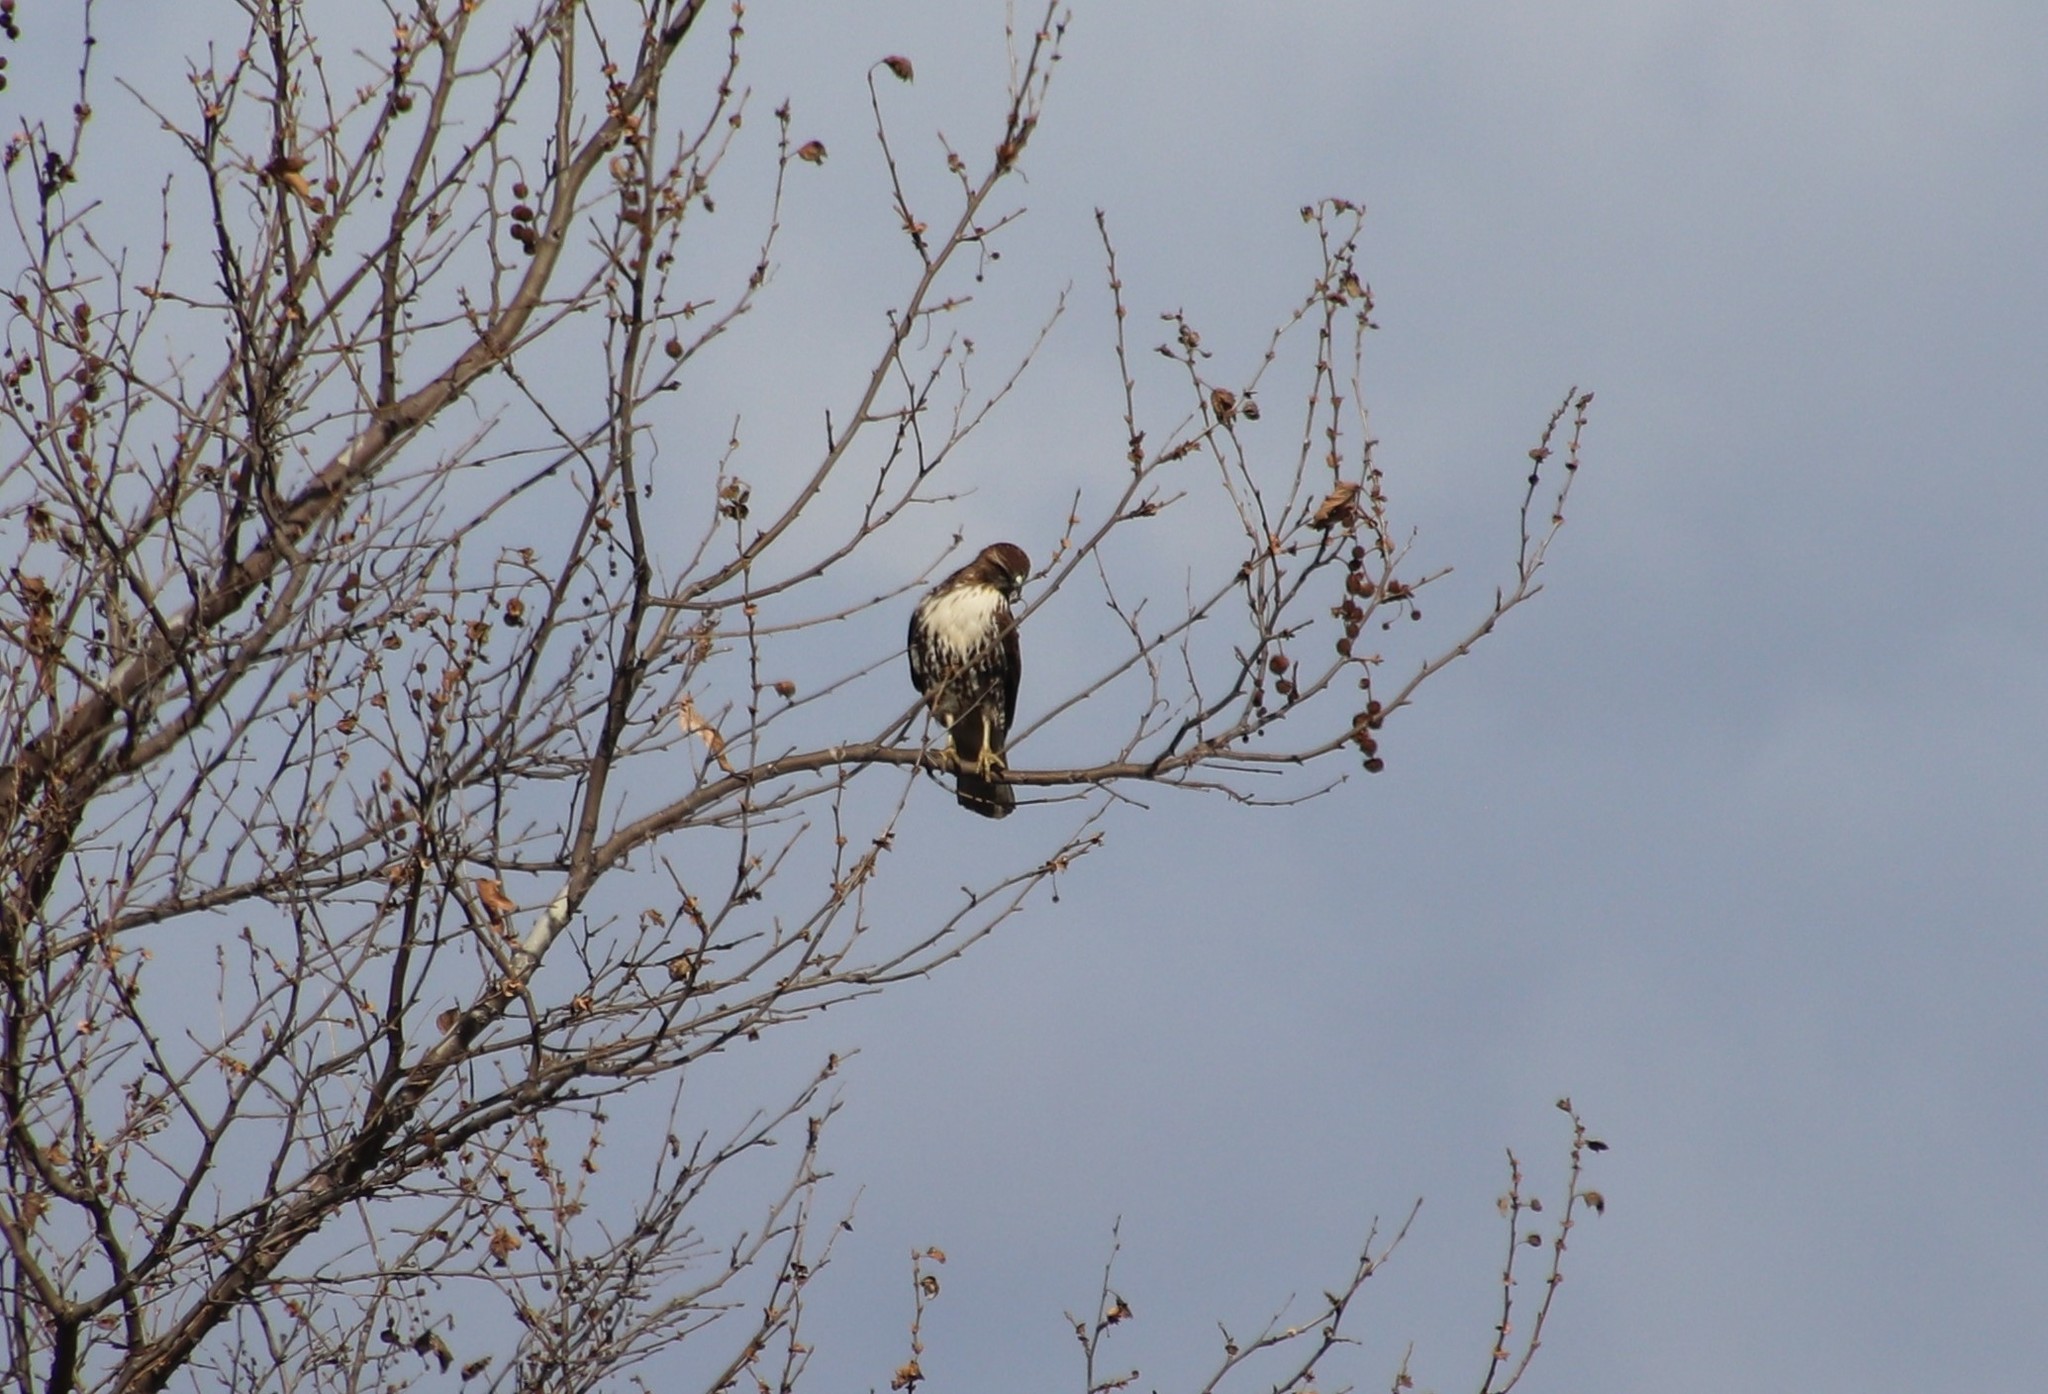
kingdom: Animalia
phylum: Chordata
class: Aves
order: Accipitriformes
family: Accipitridae
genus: Buteo
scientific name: Buteo jamaicensis
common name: Red-tailed hawk
